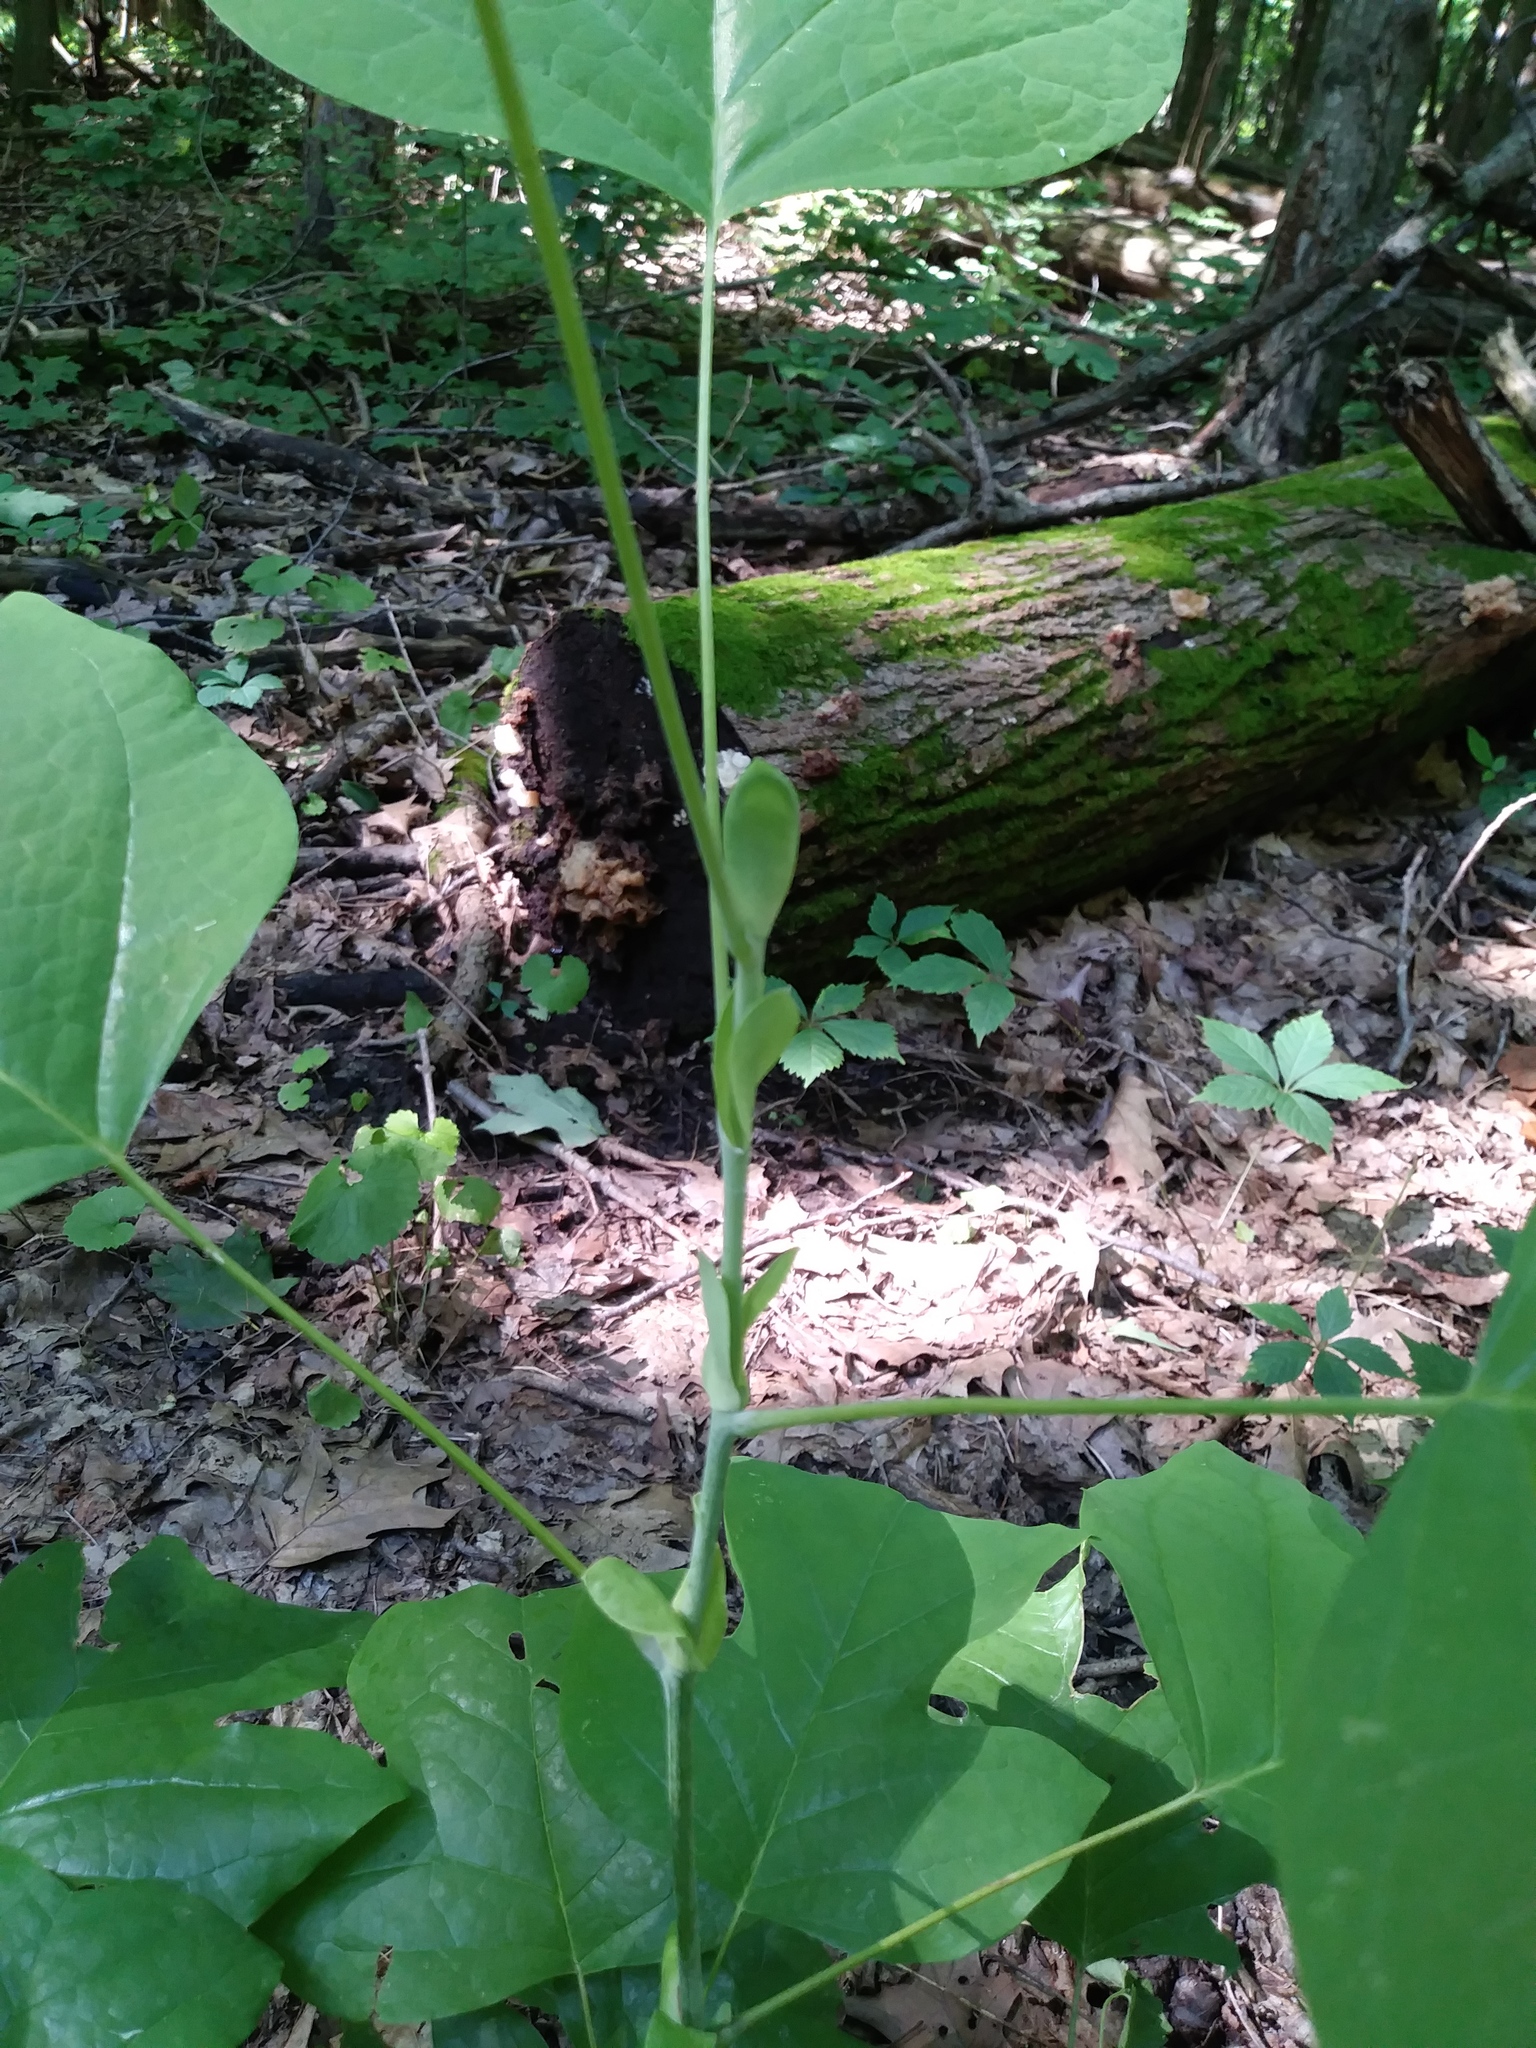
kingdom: Plantae
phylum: Tracheophyta
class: Magnoliopsida
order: Magnoliales
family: Magnoliaceae
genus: Liriodendron
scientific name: Liriodendron tulipifera
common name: Tulip tree
